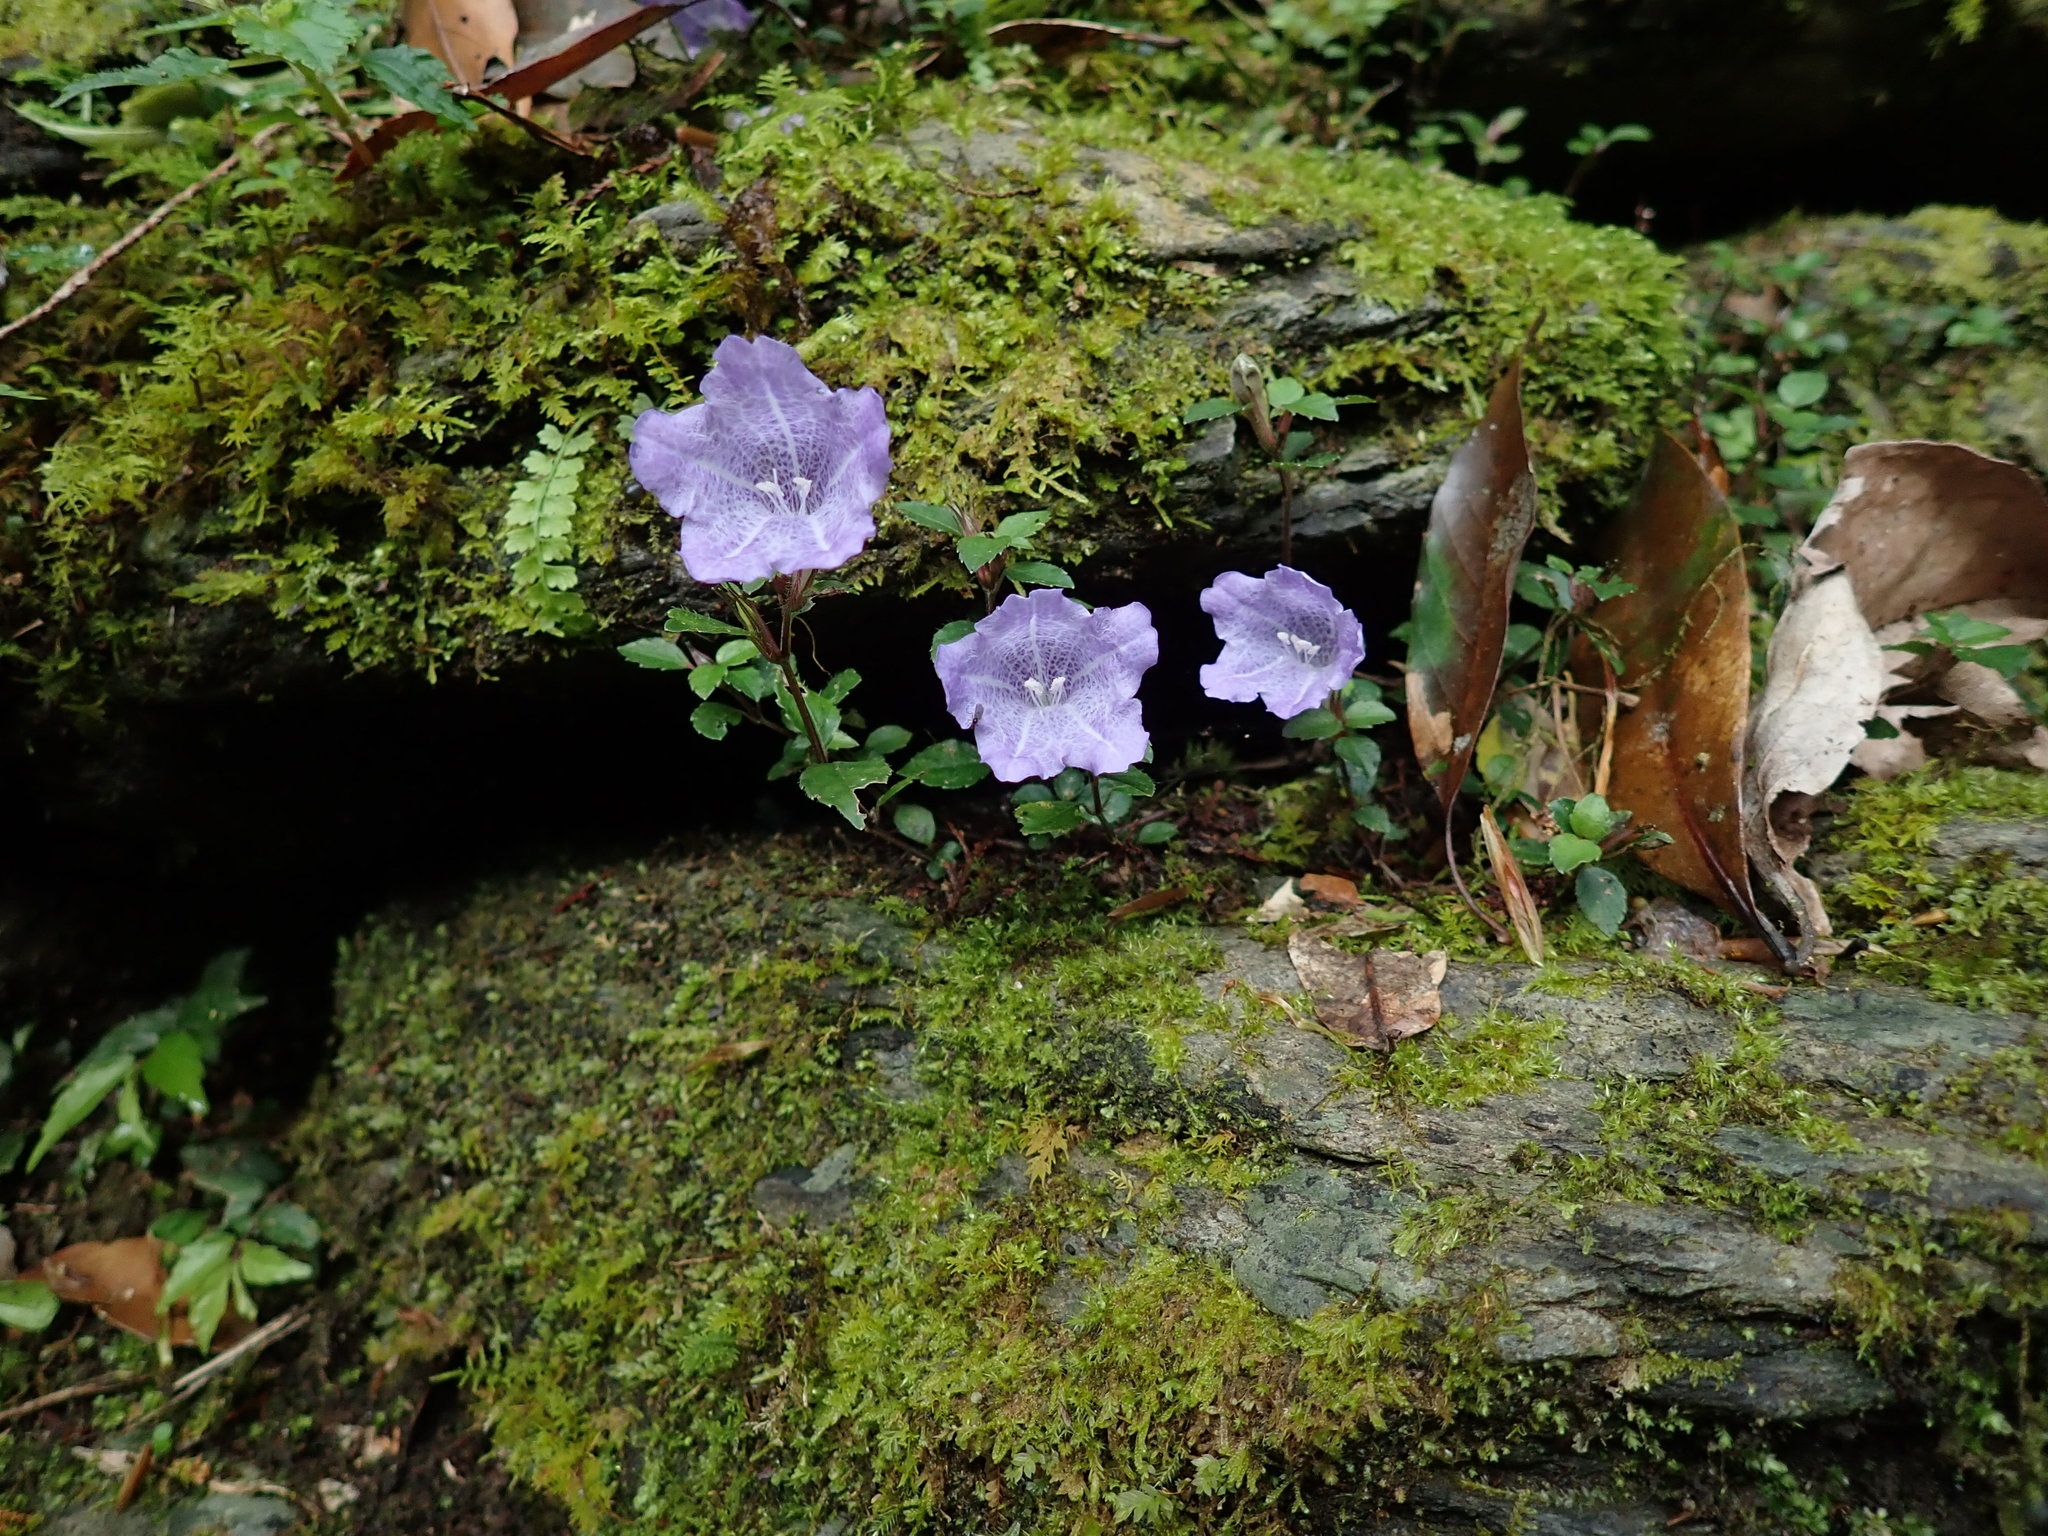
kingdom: Plantae
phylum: Tracheophyta
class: Magnoliopsida
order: Lamiales
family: Acanthaceae
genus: Strobilanthes
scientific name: Strobilanthes rankanensis
